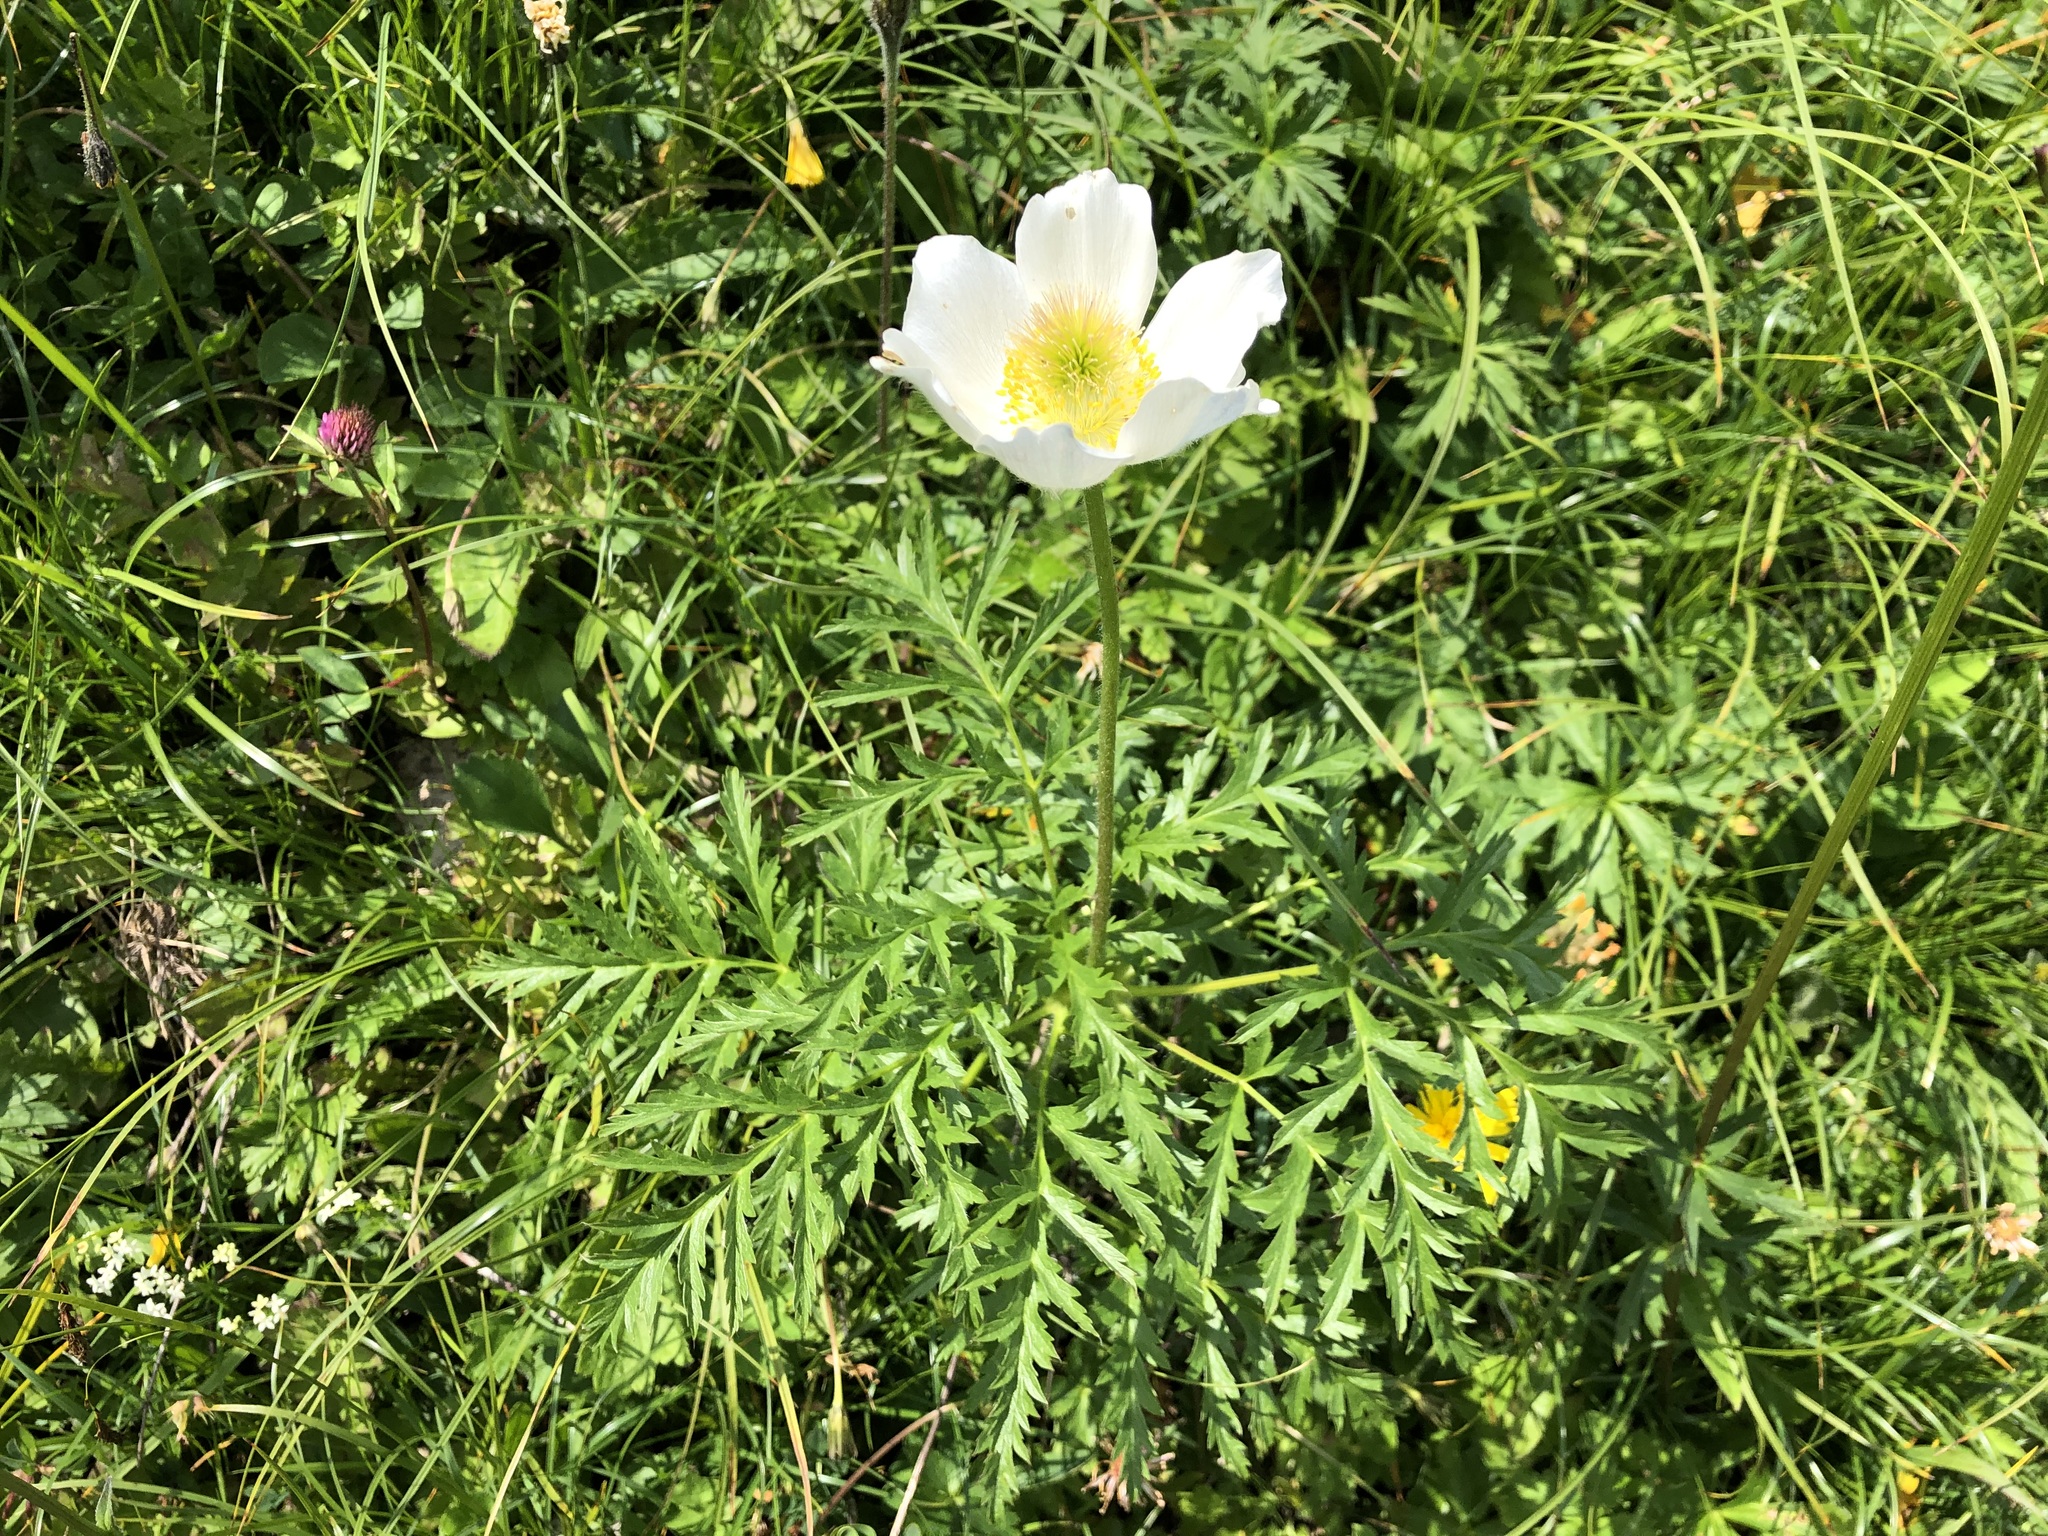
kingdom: Plantae
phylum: Tracheophyta
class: Magnoliopsida
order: Ranunculales
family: Ranunculaceae
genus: Pulsatilla
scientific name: Pulsatilla alpina
